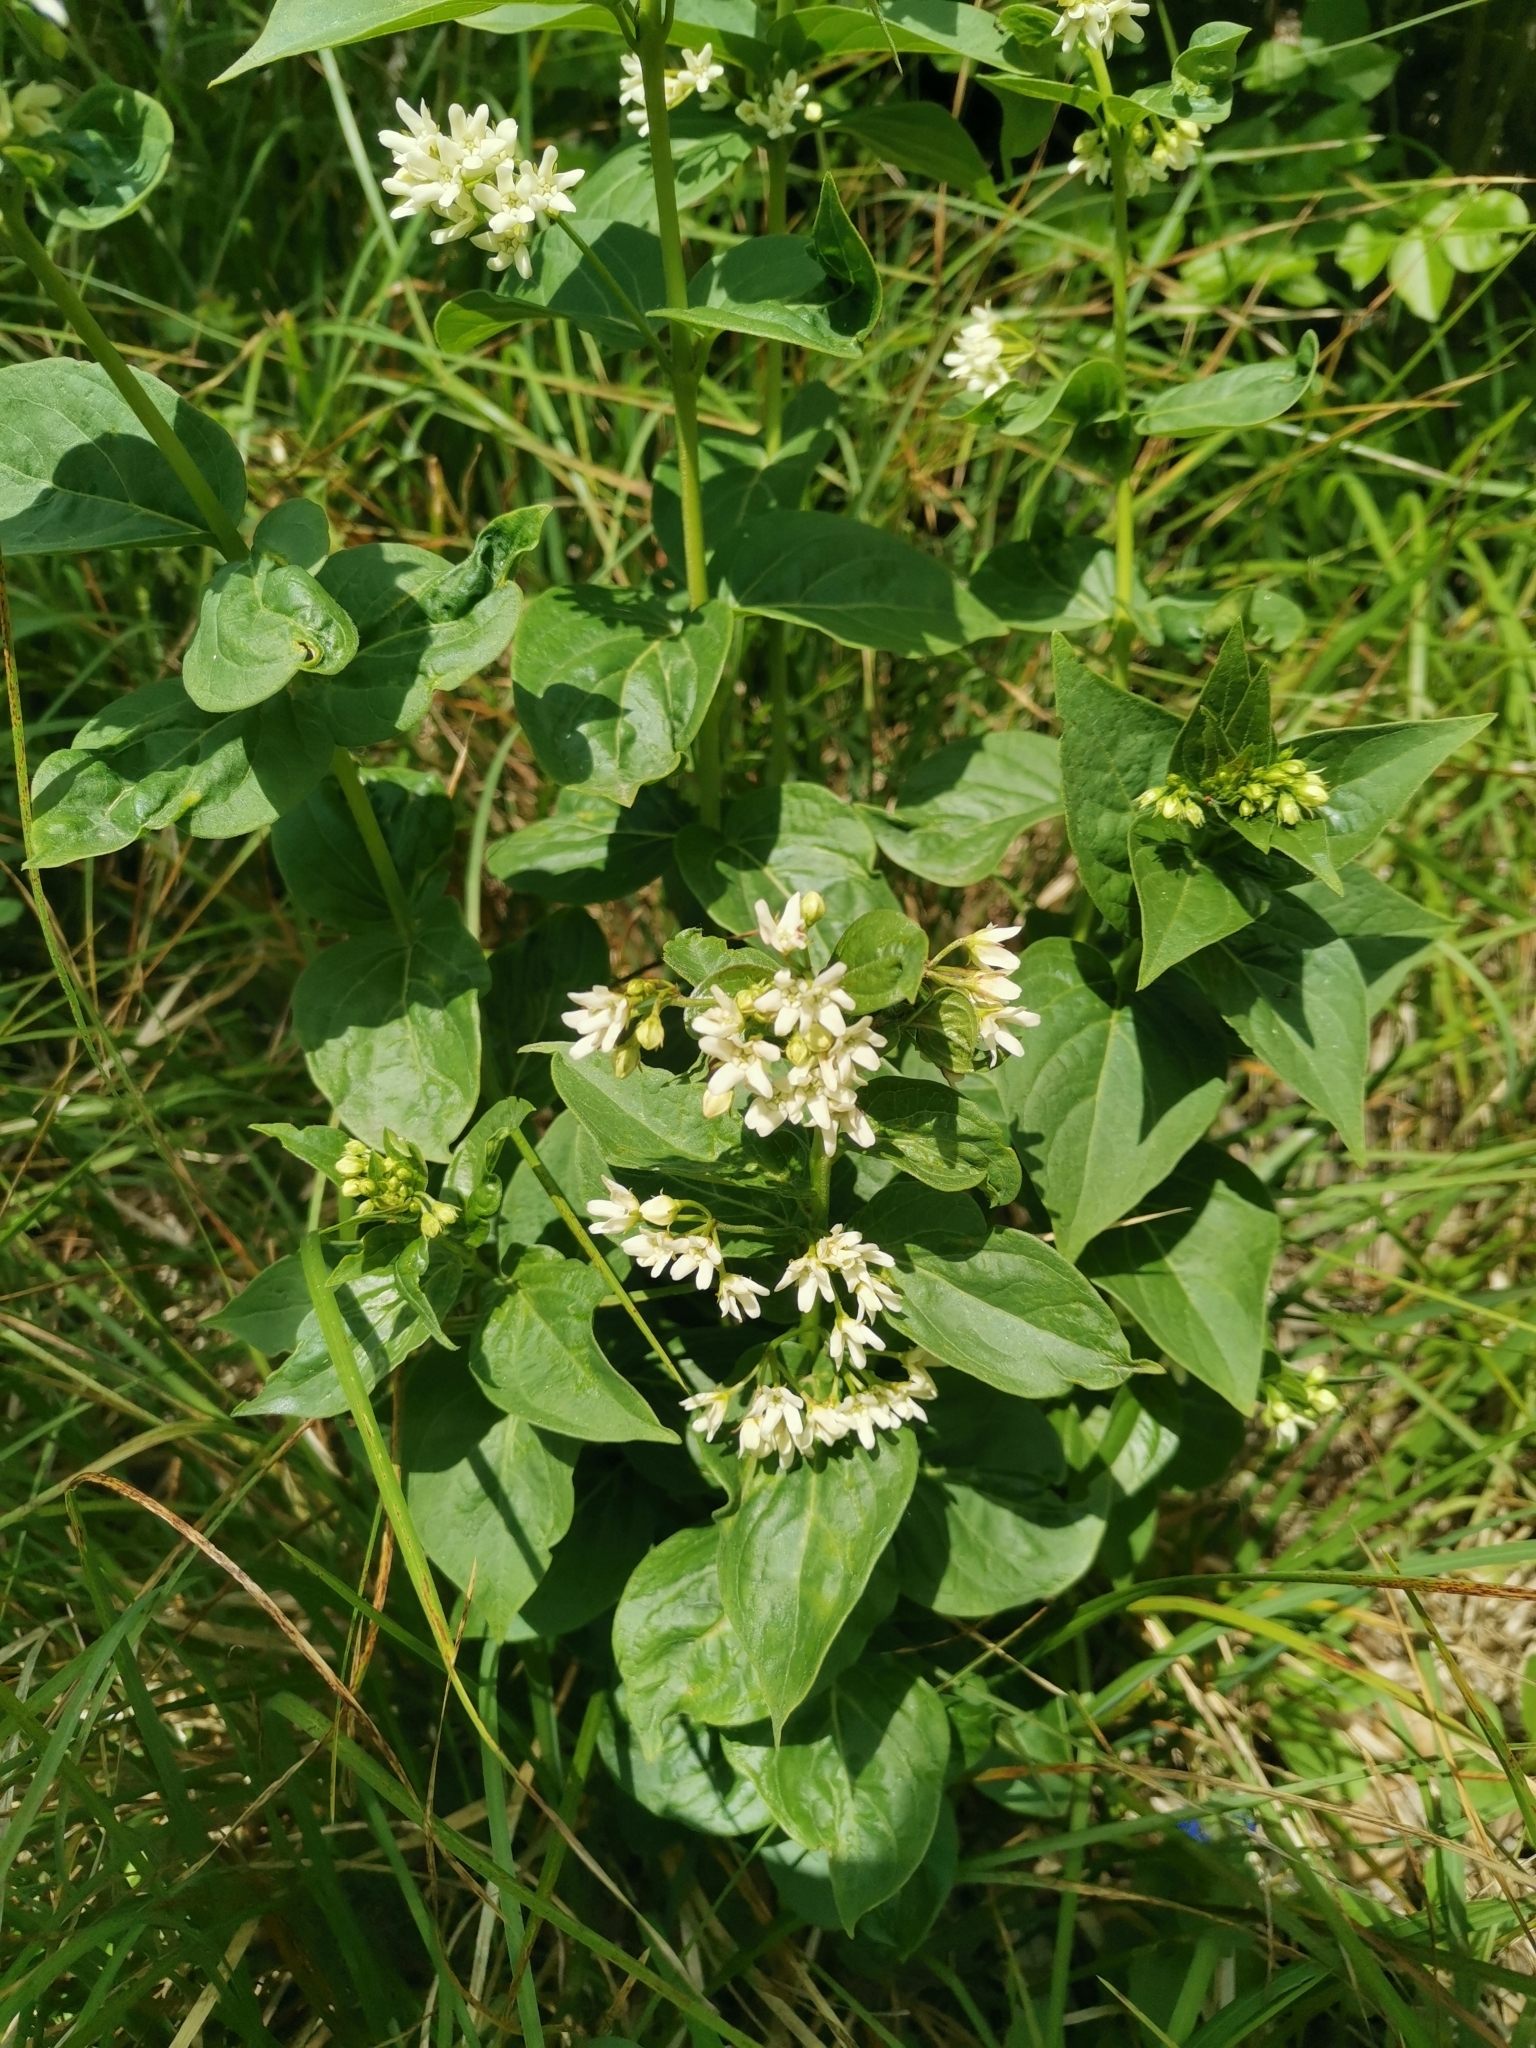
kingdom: Plantae
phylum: Tracheophyta
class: Magnoliopsida
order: Gentianales
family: Apocynaceae
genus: Vincetoxicum
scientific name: Vincetoxicum hirundinaria
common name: White swallowwort
